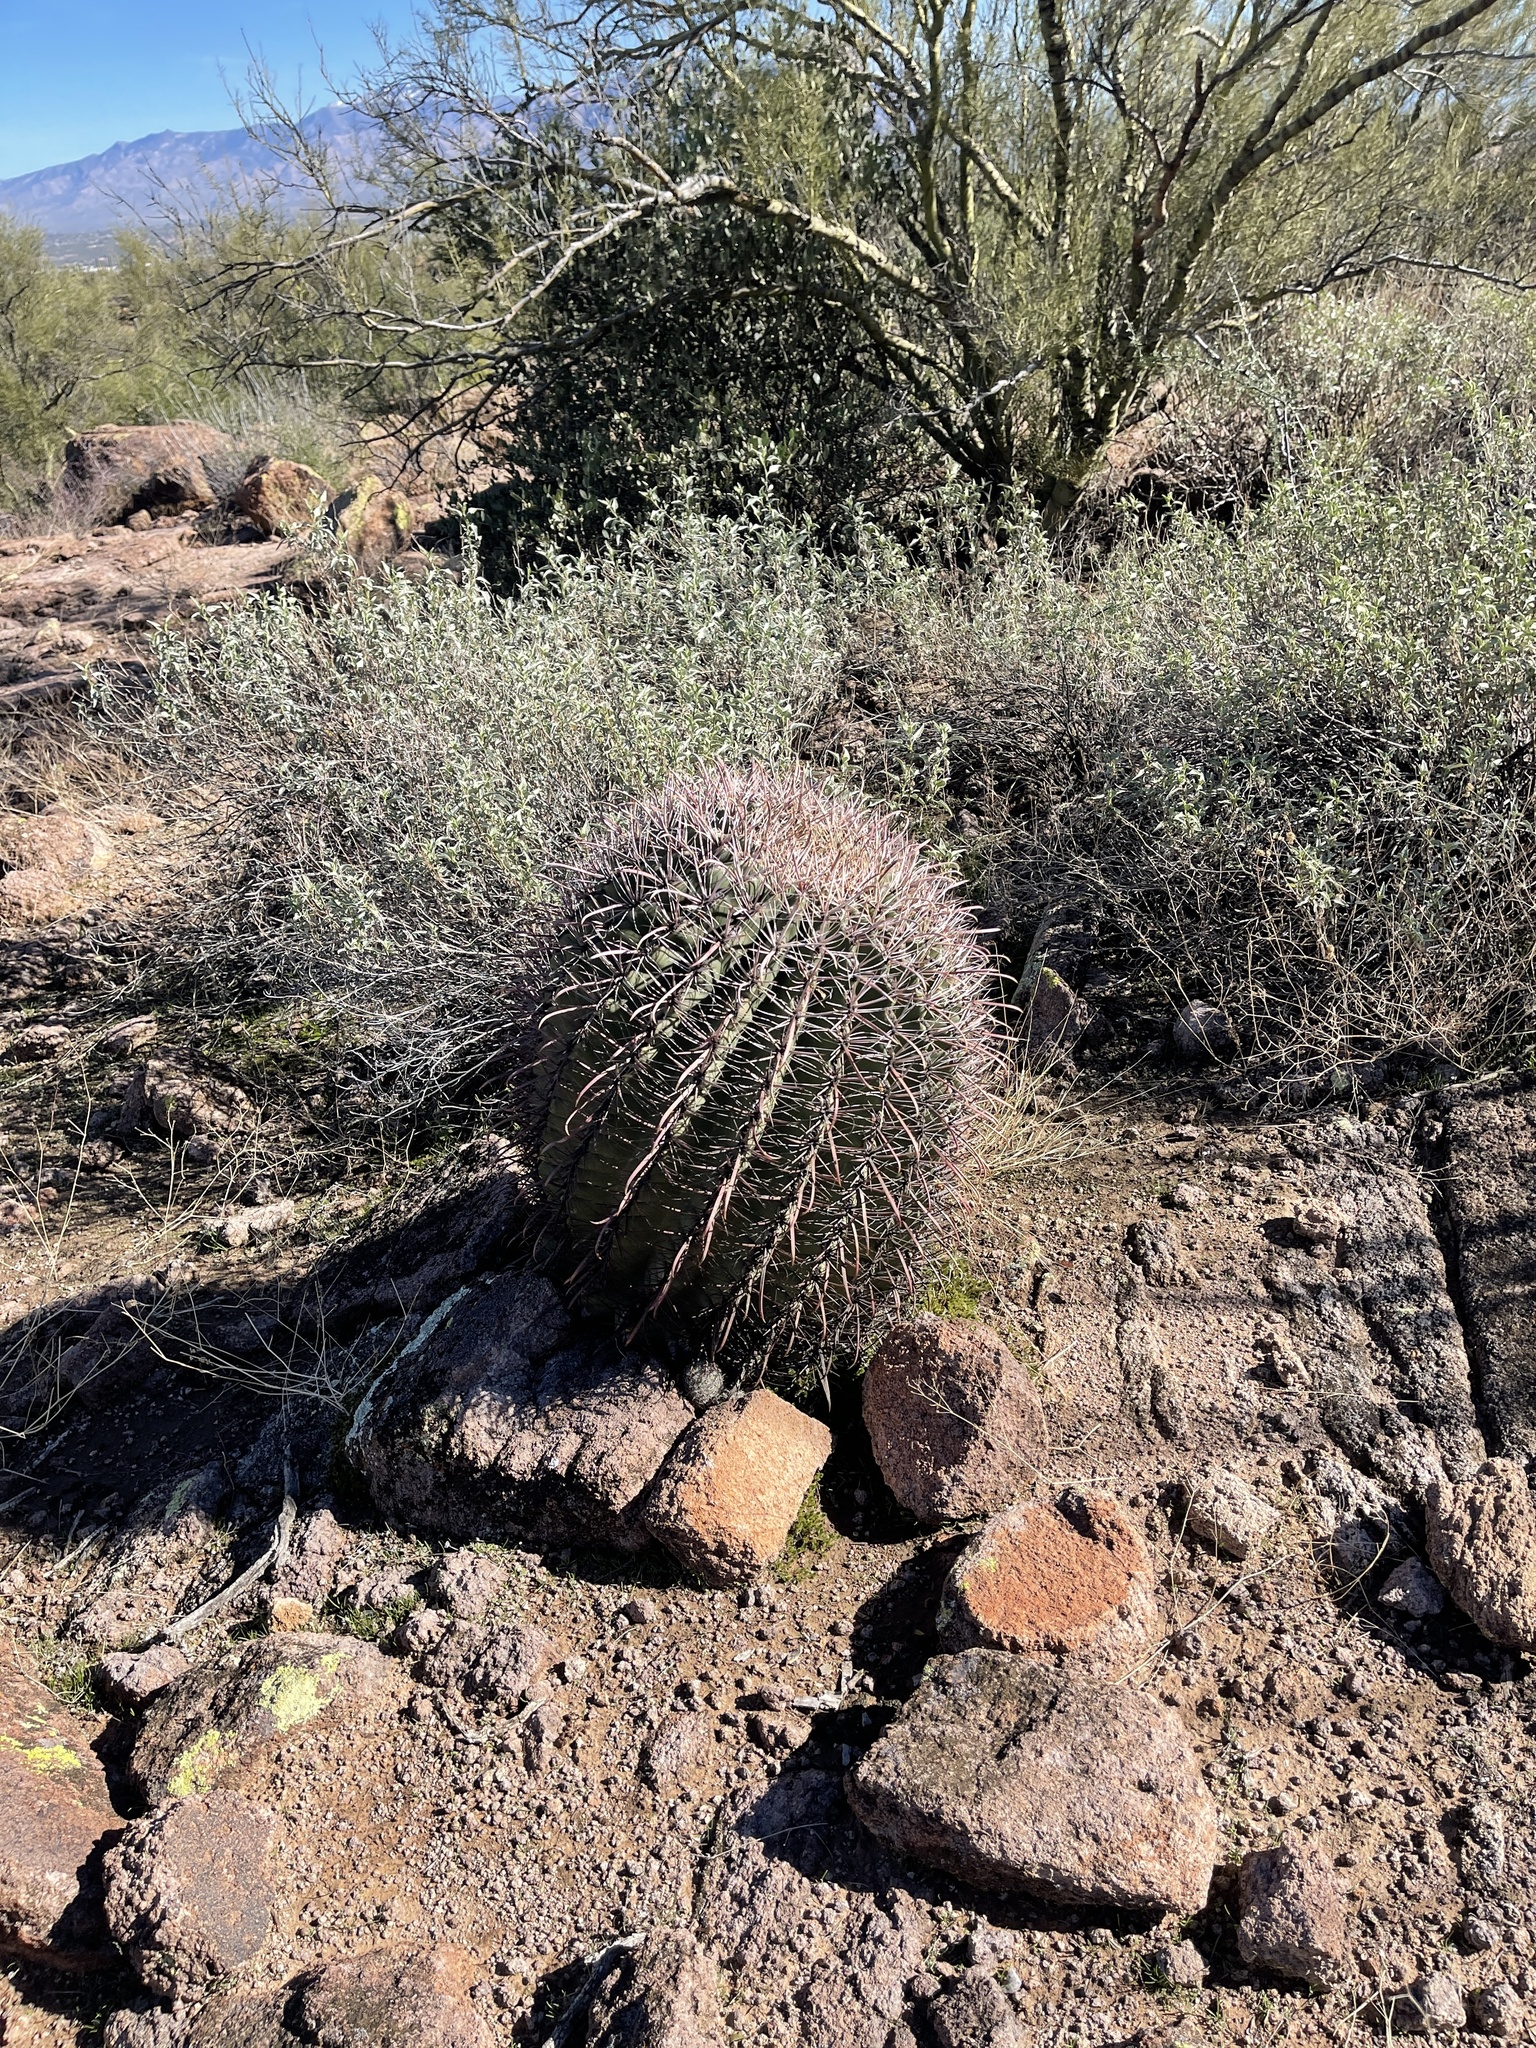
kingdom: Plantae
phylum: Tracheophyta
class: Magnoliopsida
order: Caryophyllales
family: Cactaceae
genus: Ferocactus
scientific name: Ferocactus wislizeni
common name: Candy barrel cactus
